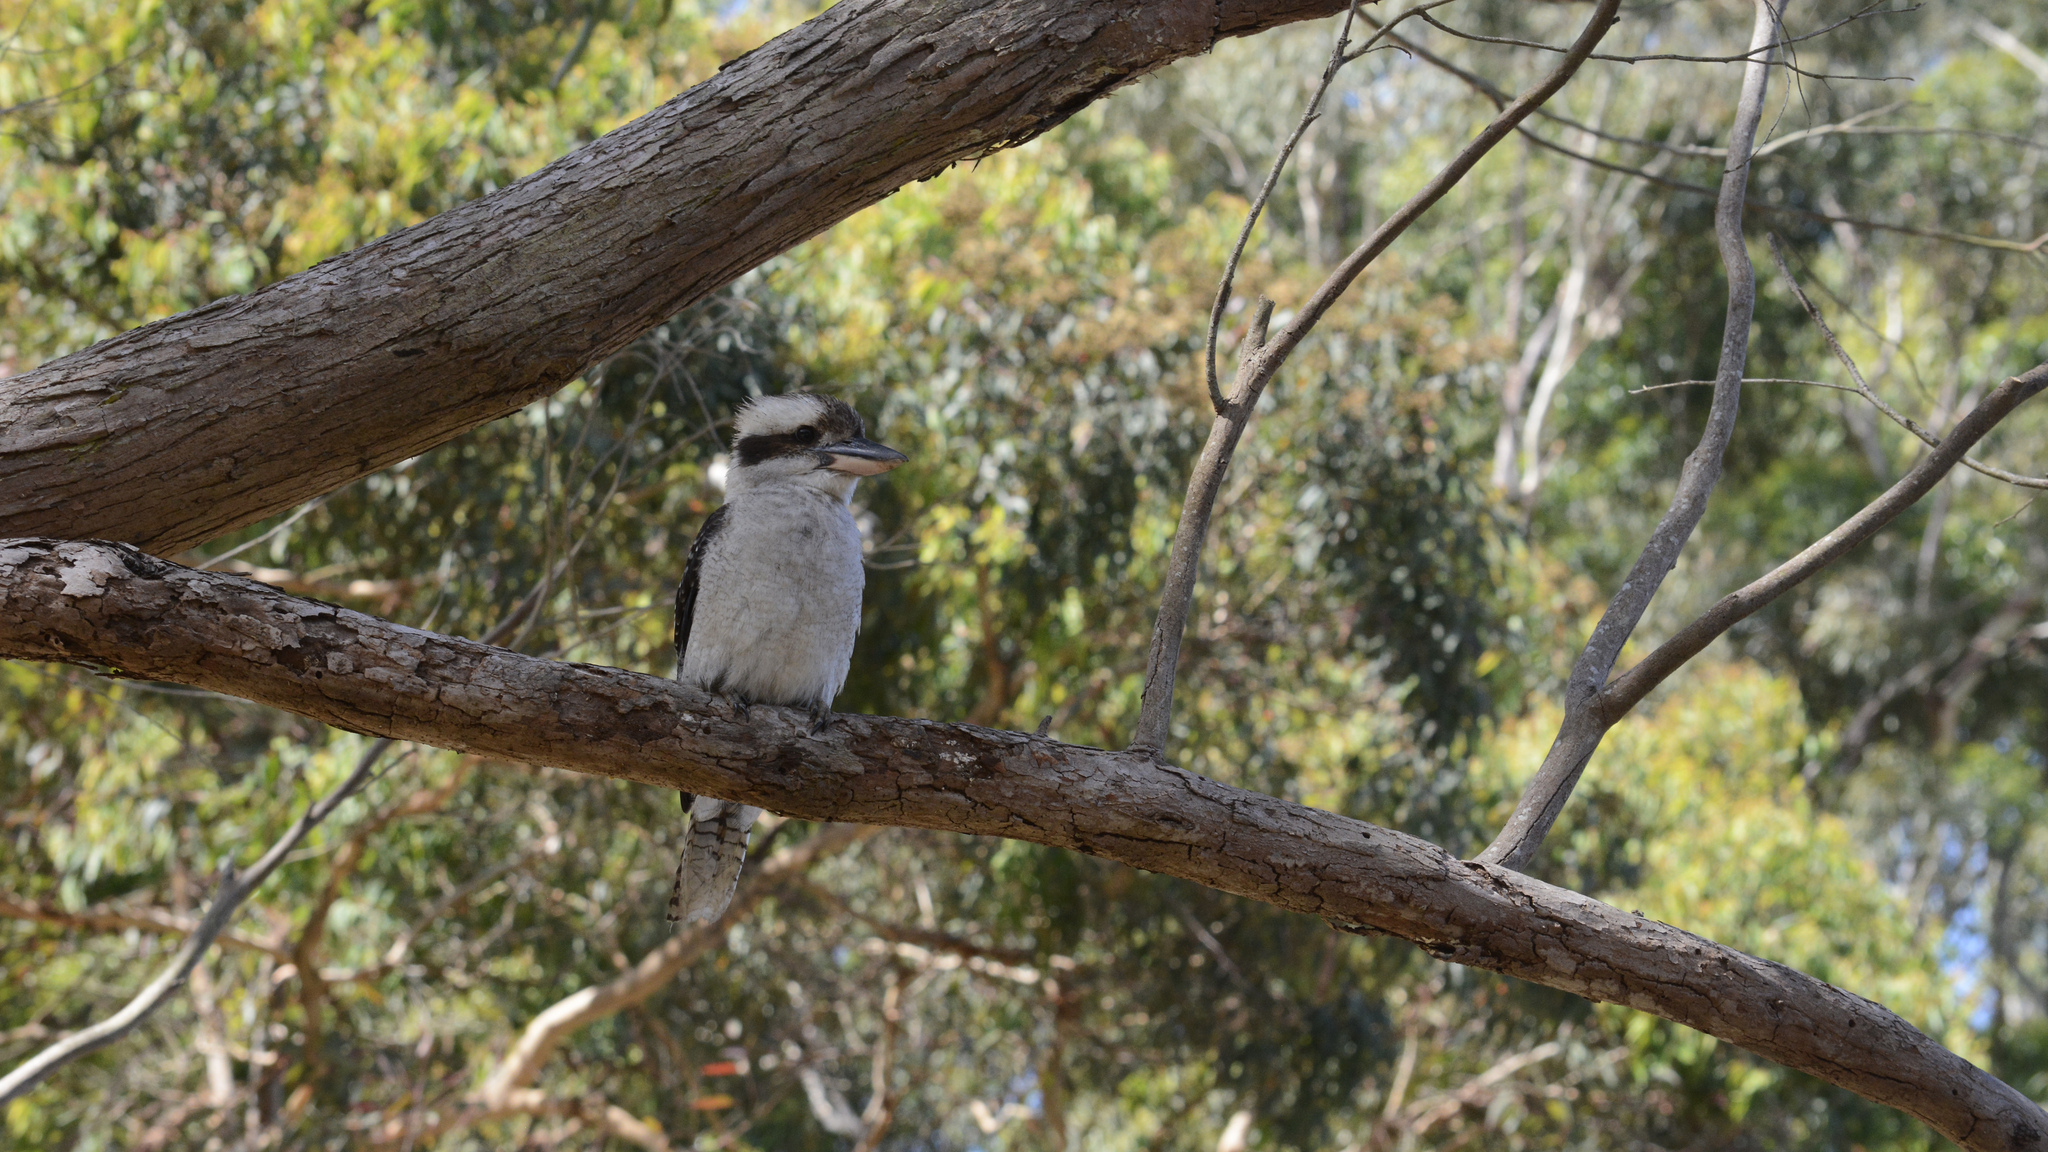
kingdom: Animalia
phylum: Chordata
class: Aves
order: Coraciiformes
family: Alcedinidae
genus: Dacelo
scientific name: Dacelo novaeguineae
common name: Laughing kookaburra
